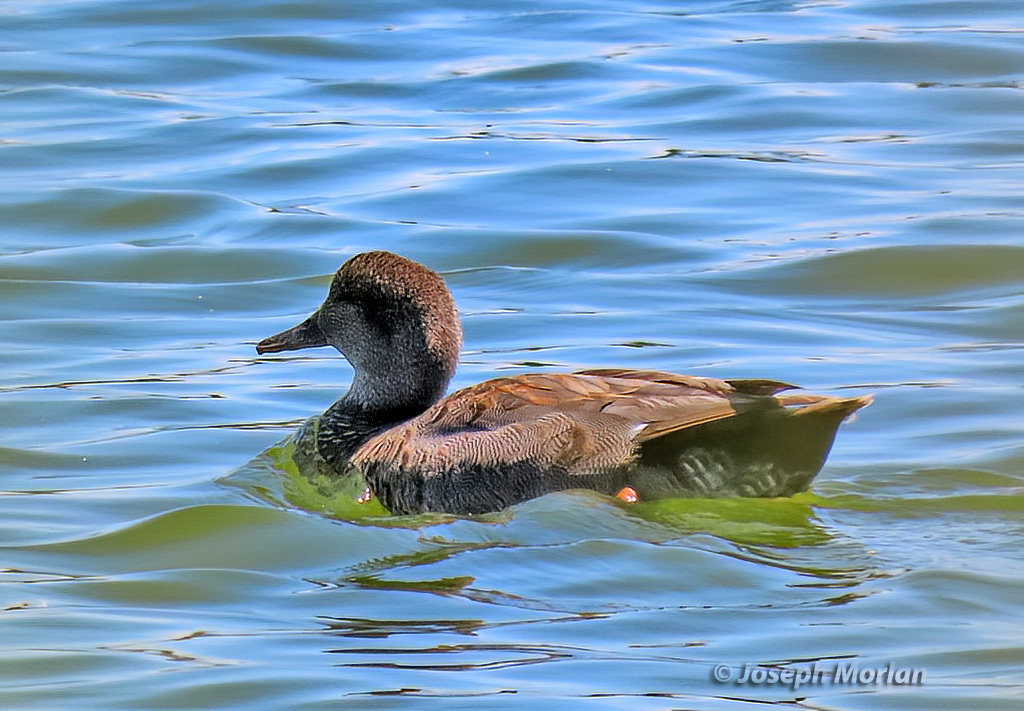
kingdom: Animalia
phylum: Chordata
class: Aves
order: Anseriformes
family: Anatidae
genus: Mareca
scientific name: Mareca strepera
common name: Gadwall
